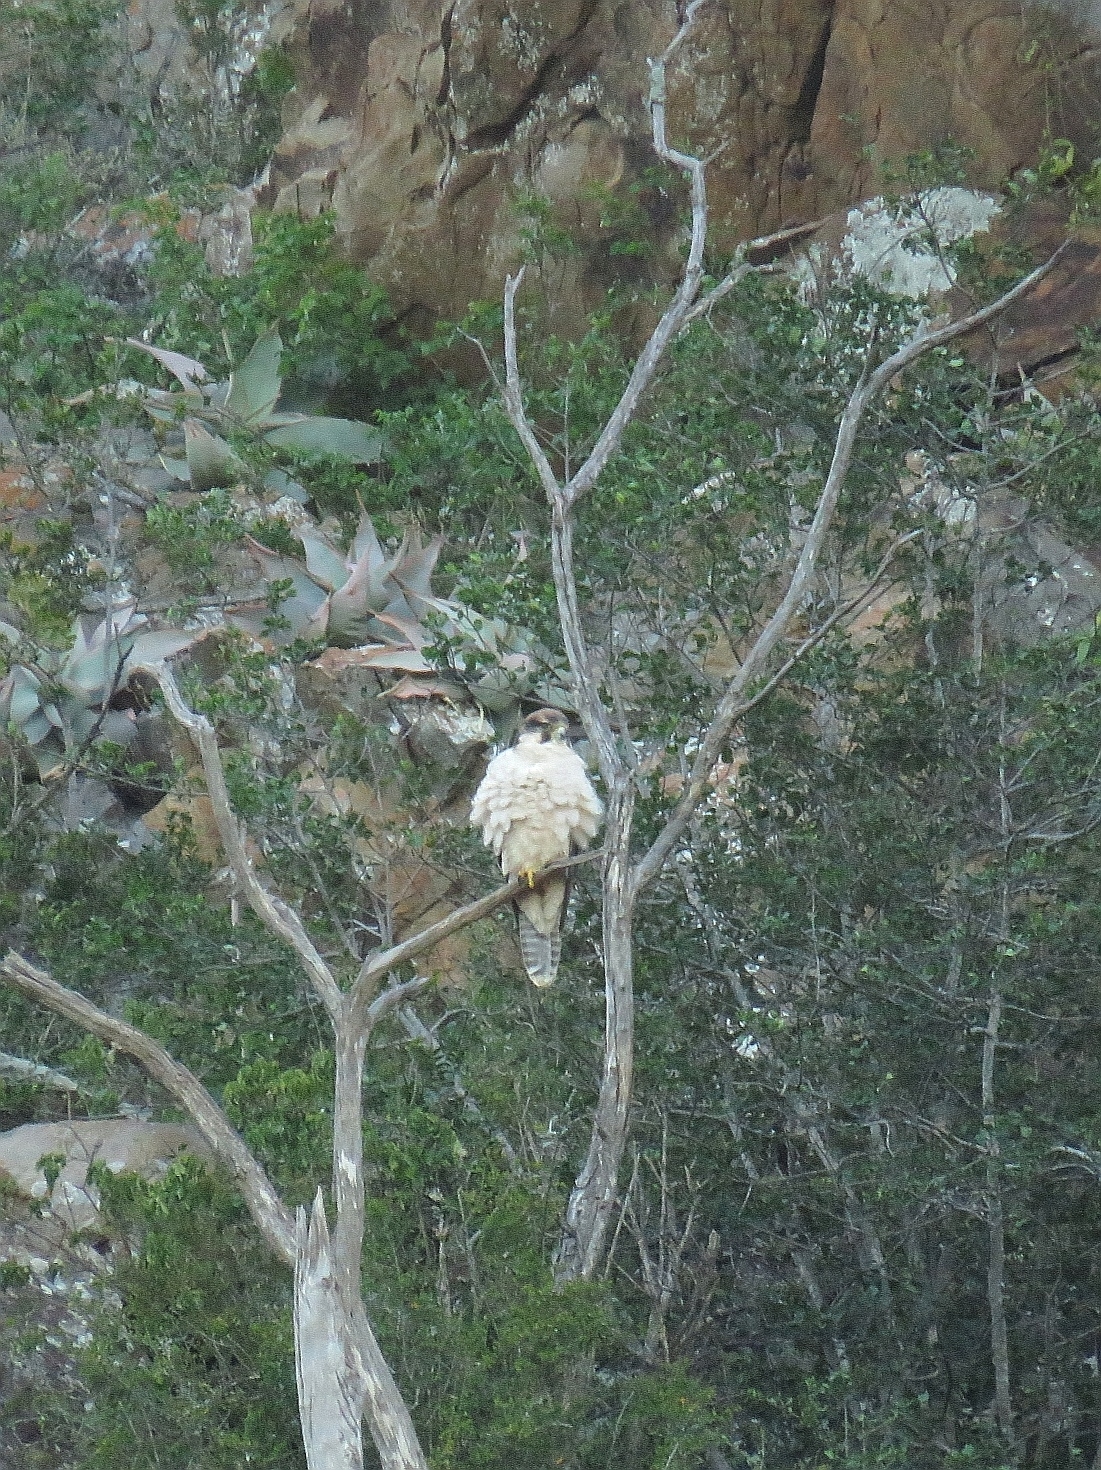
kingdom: Animalia
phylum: Chordata
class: Aves
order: Falconiformes
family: Falconidae
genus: Falco
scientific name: Falco biarmicus
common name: Lanner falcon
